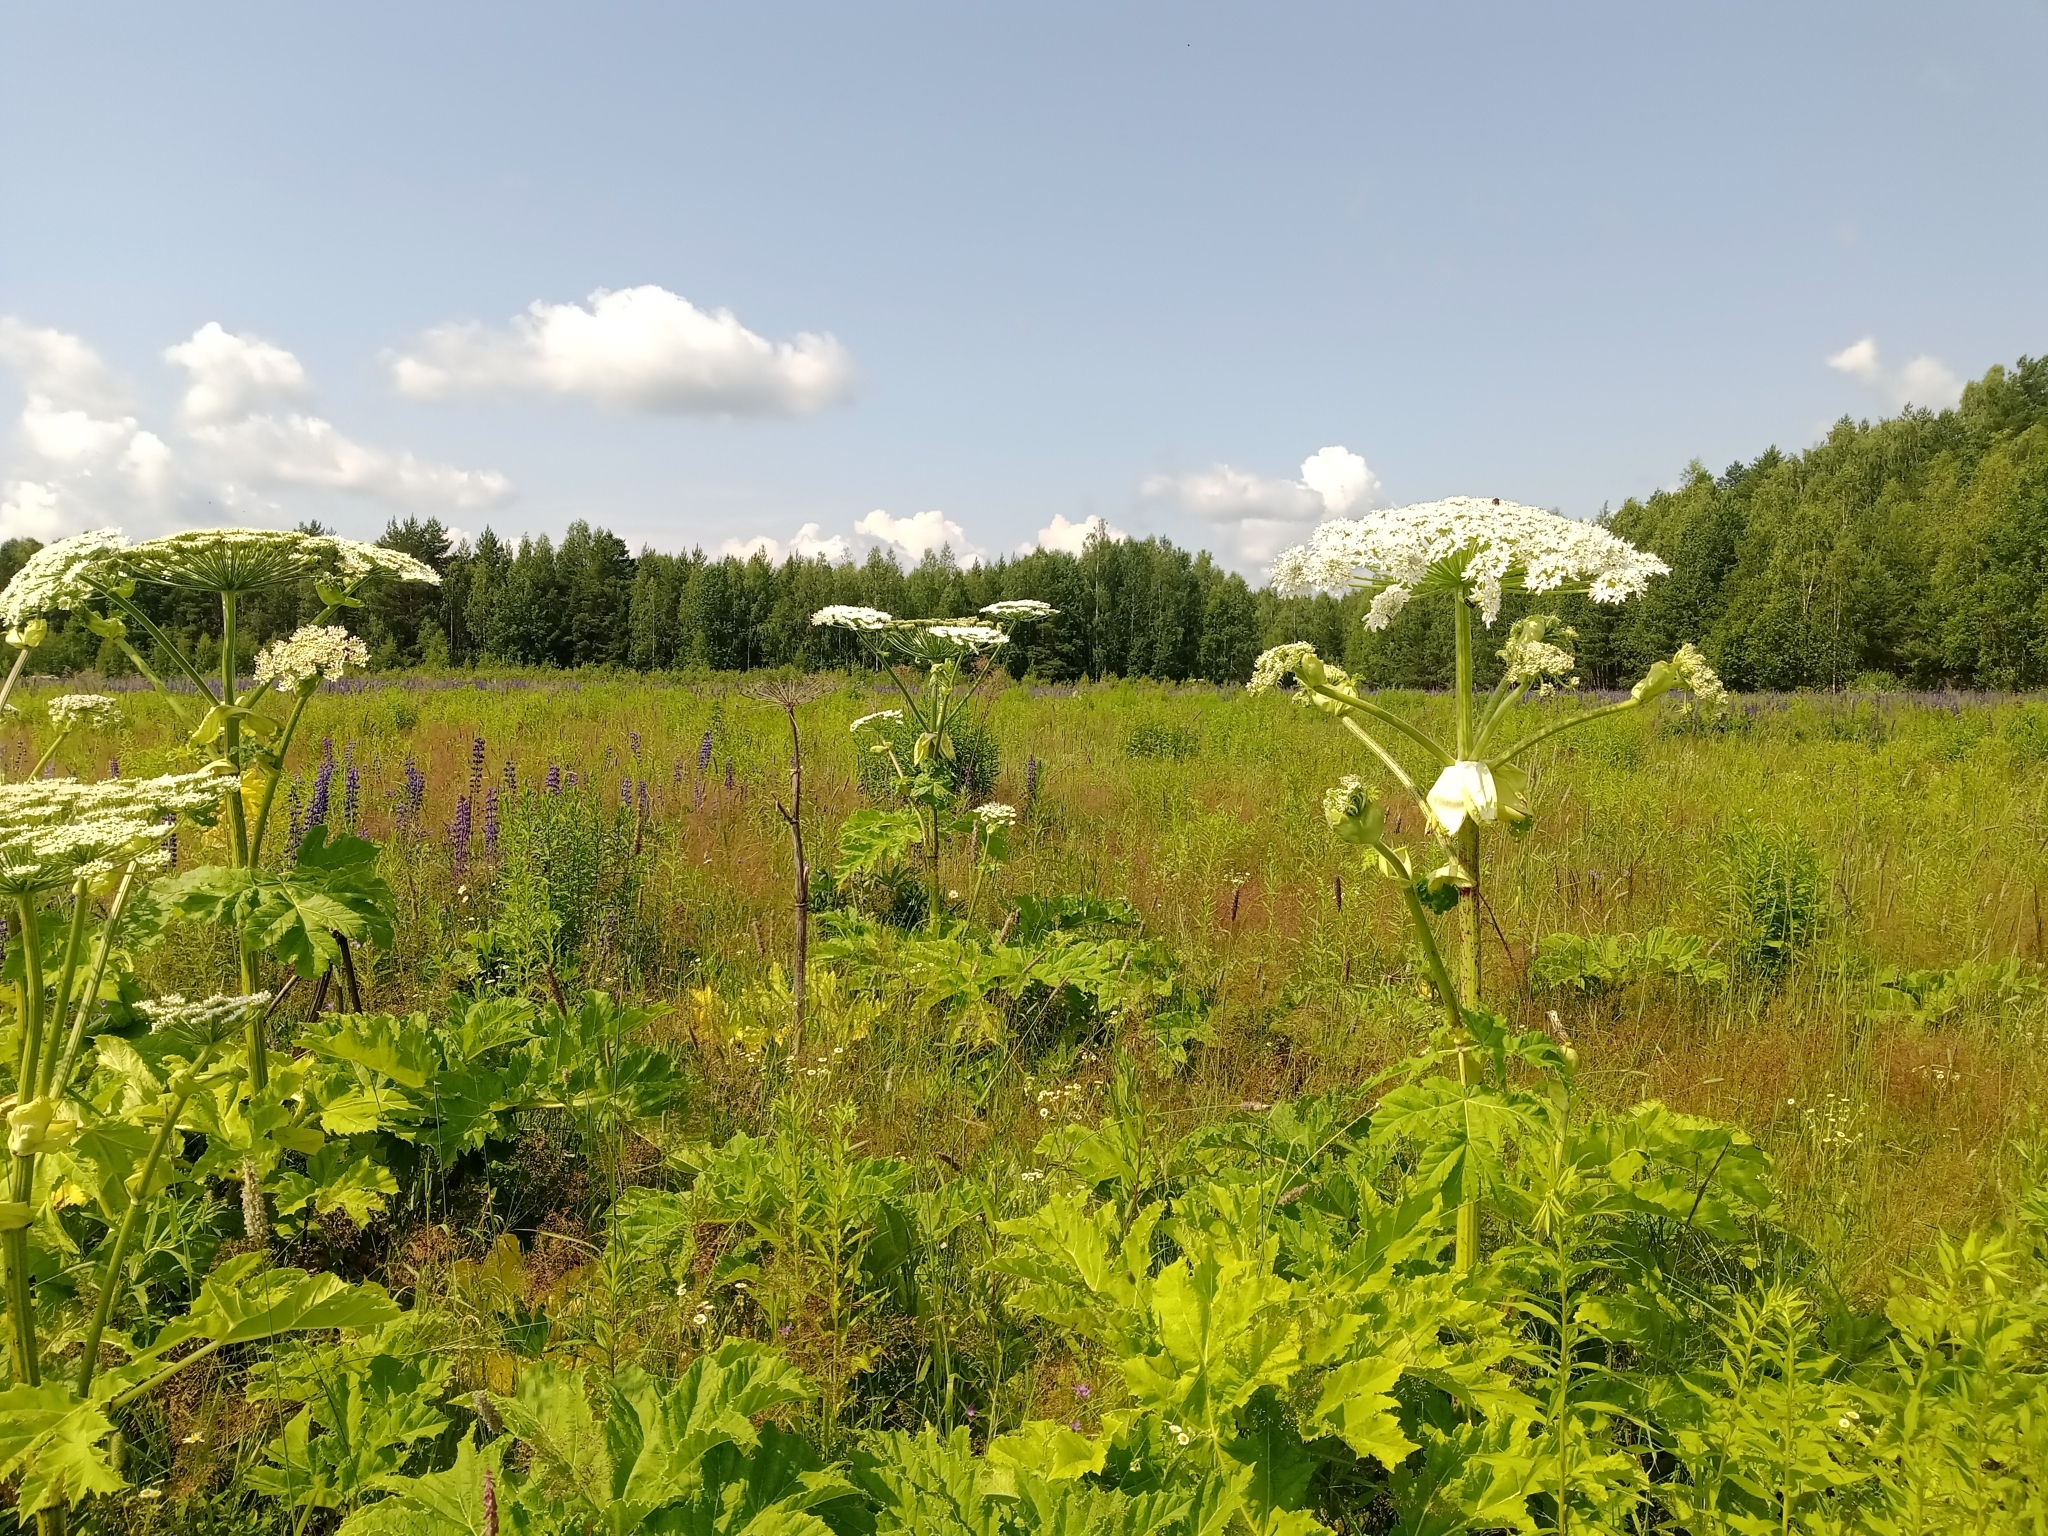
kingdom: Plantae
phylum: Tracheophyta
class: Magnoliopsida
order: Apiales
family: Apiaceae
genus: Heracleum
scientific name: Heracleum sosnowskyi
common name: Sosnowsky's hogweed
